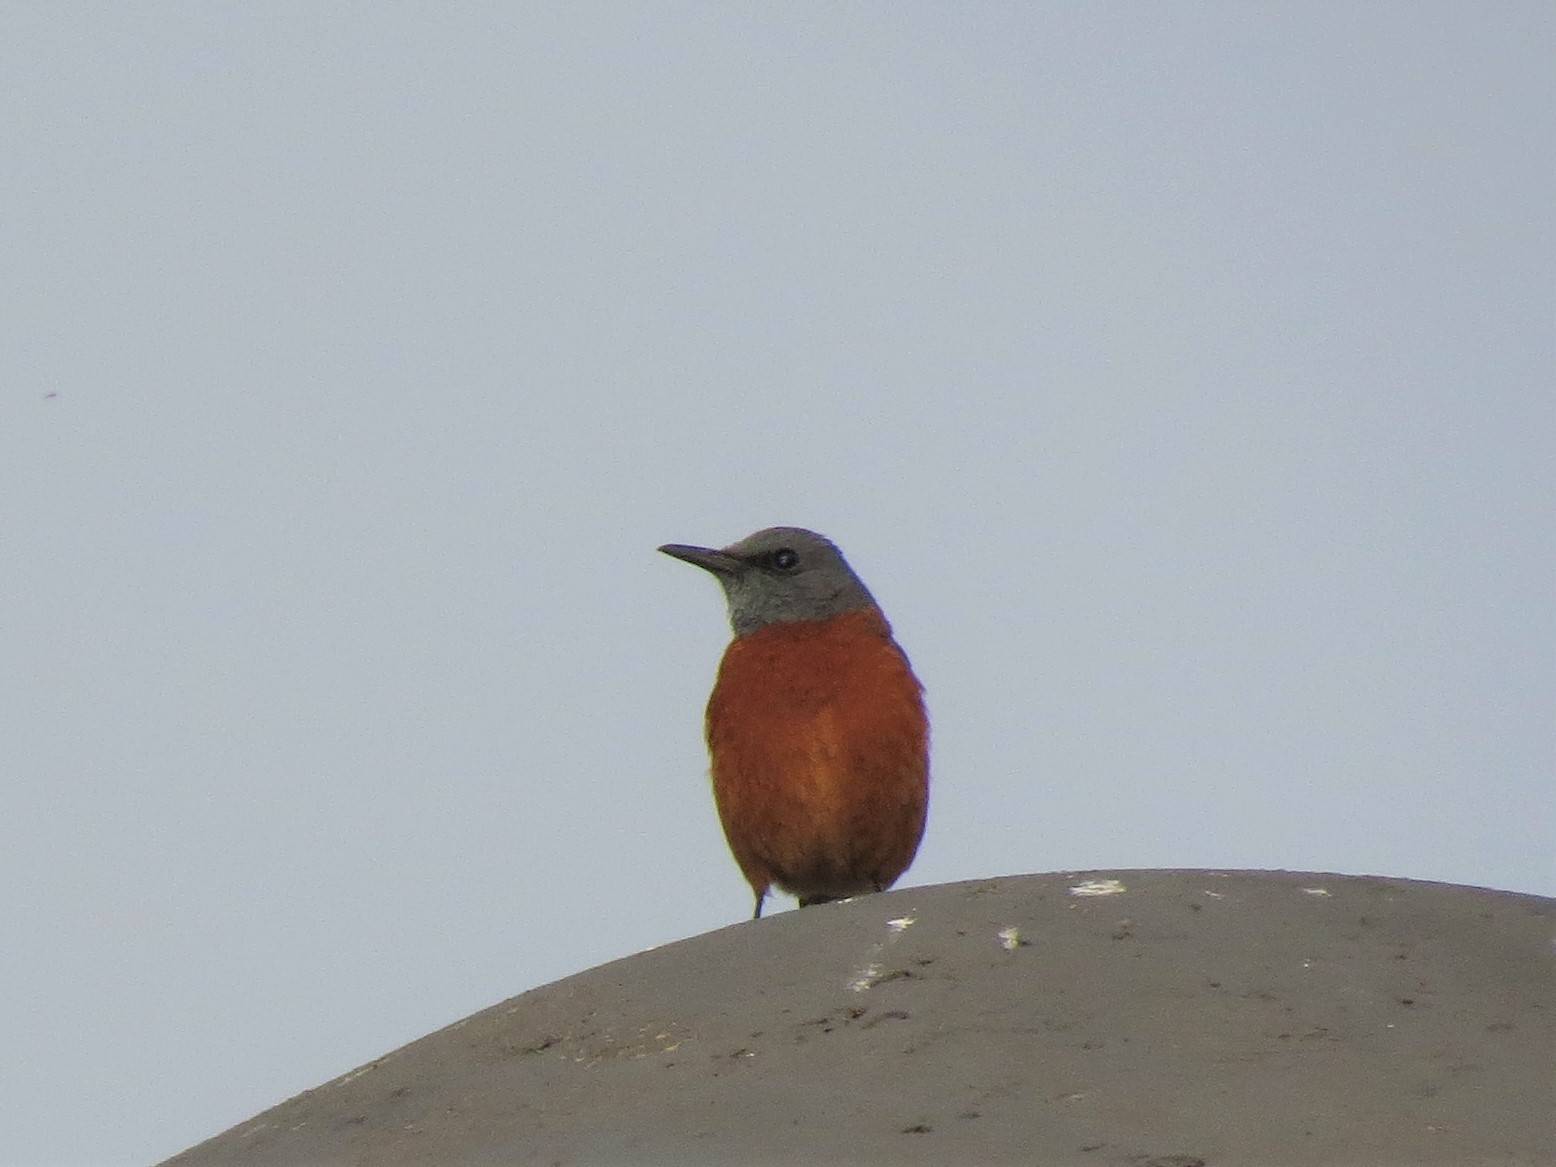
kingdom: Animalia
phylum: Chordata
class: Aves
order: Passeriformes
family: Muscicapidae
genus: Monticola
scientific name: Monticola rupestris
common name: Cape rock thrush
